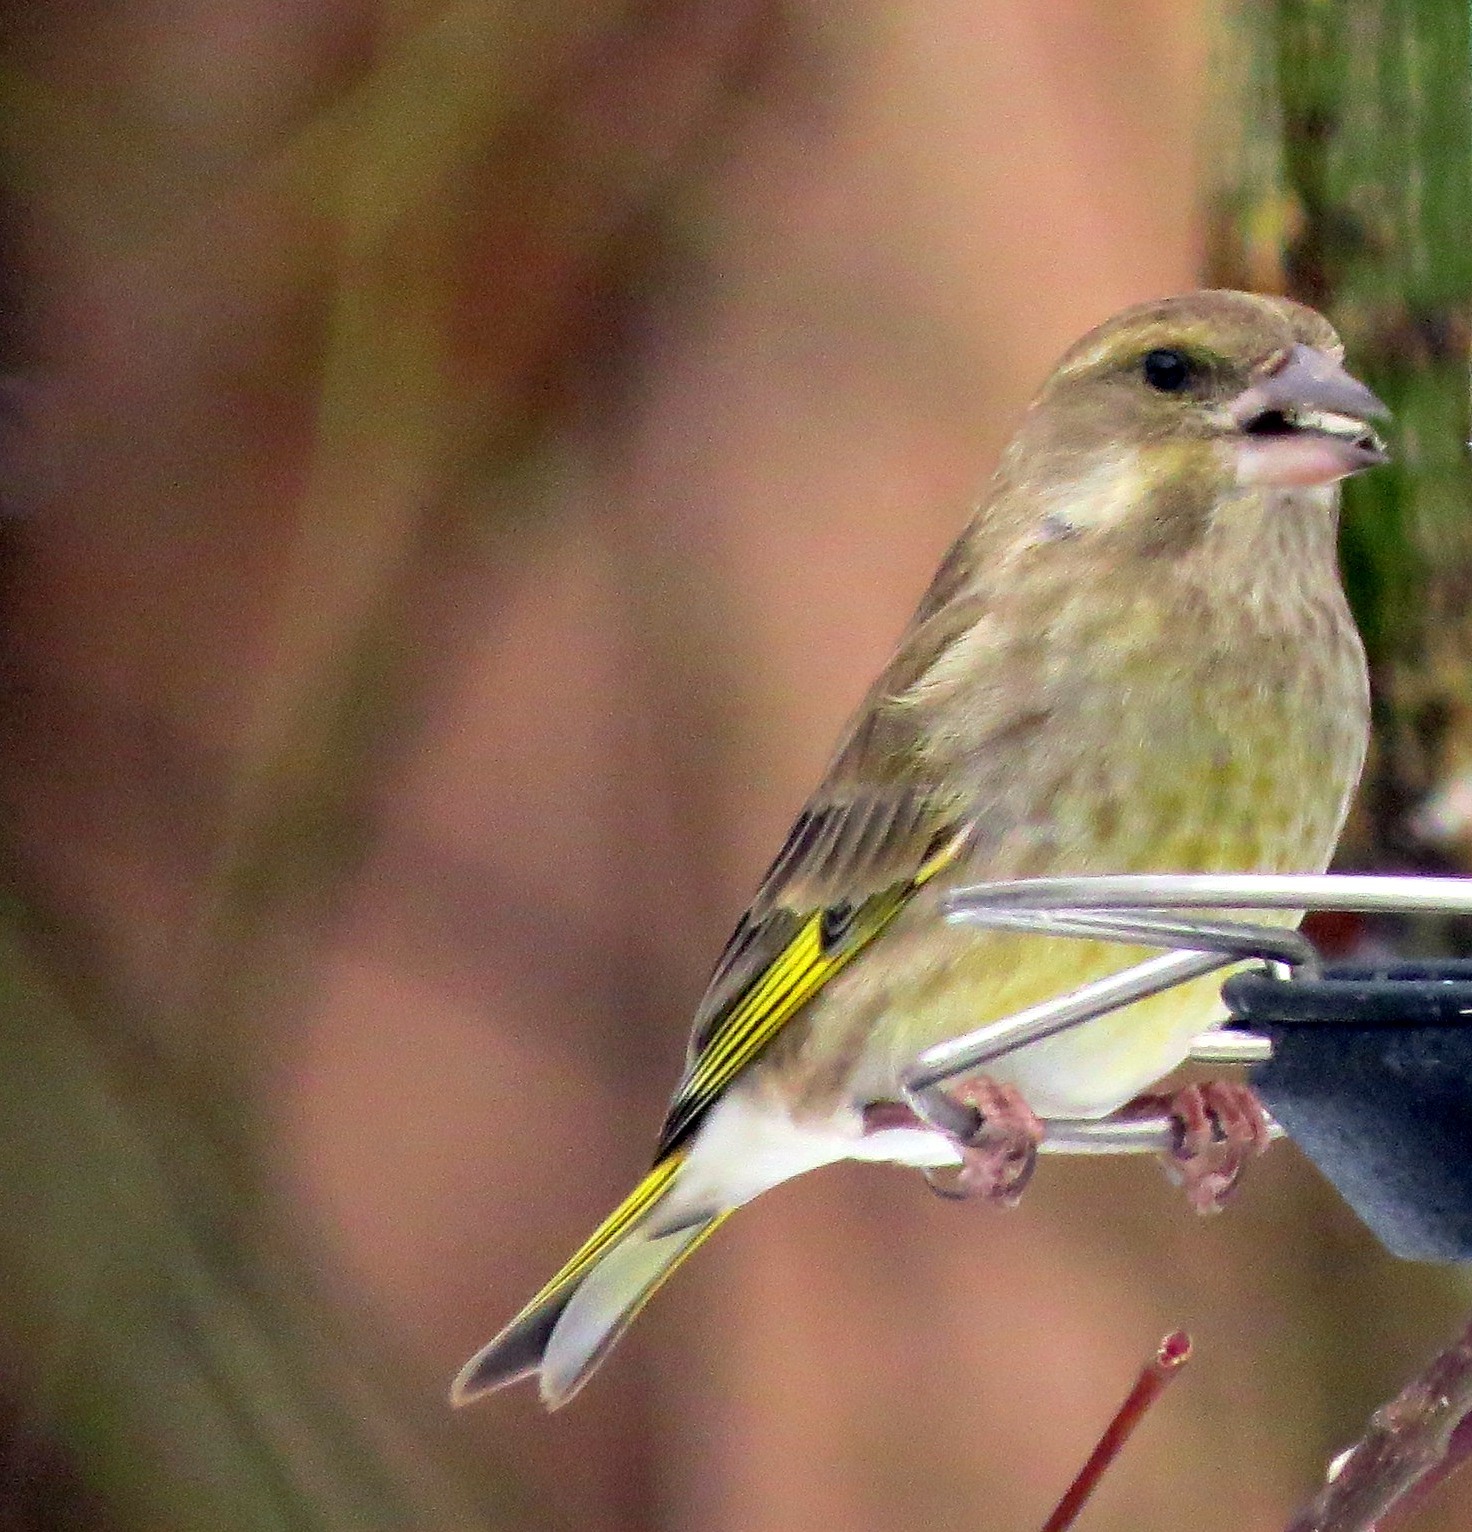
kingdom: Plantae
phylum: Tracheophyta
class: Liliopsida
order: Poales
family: Poaceae
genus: Chloris
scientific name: Chloris chloris
